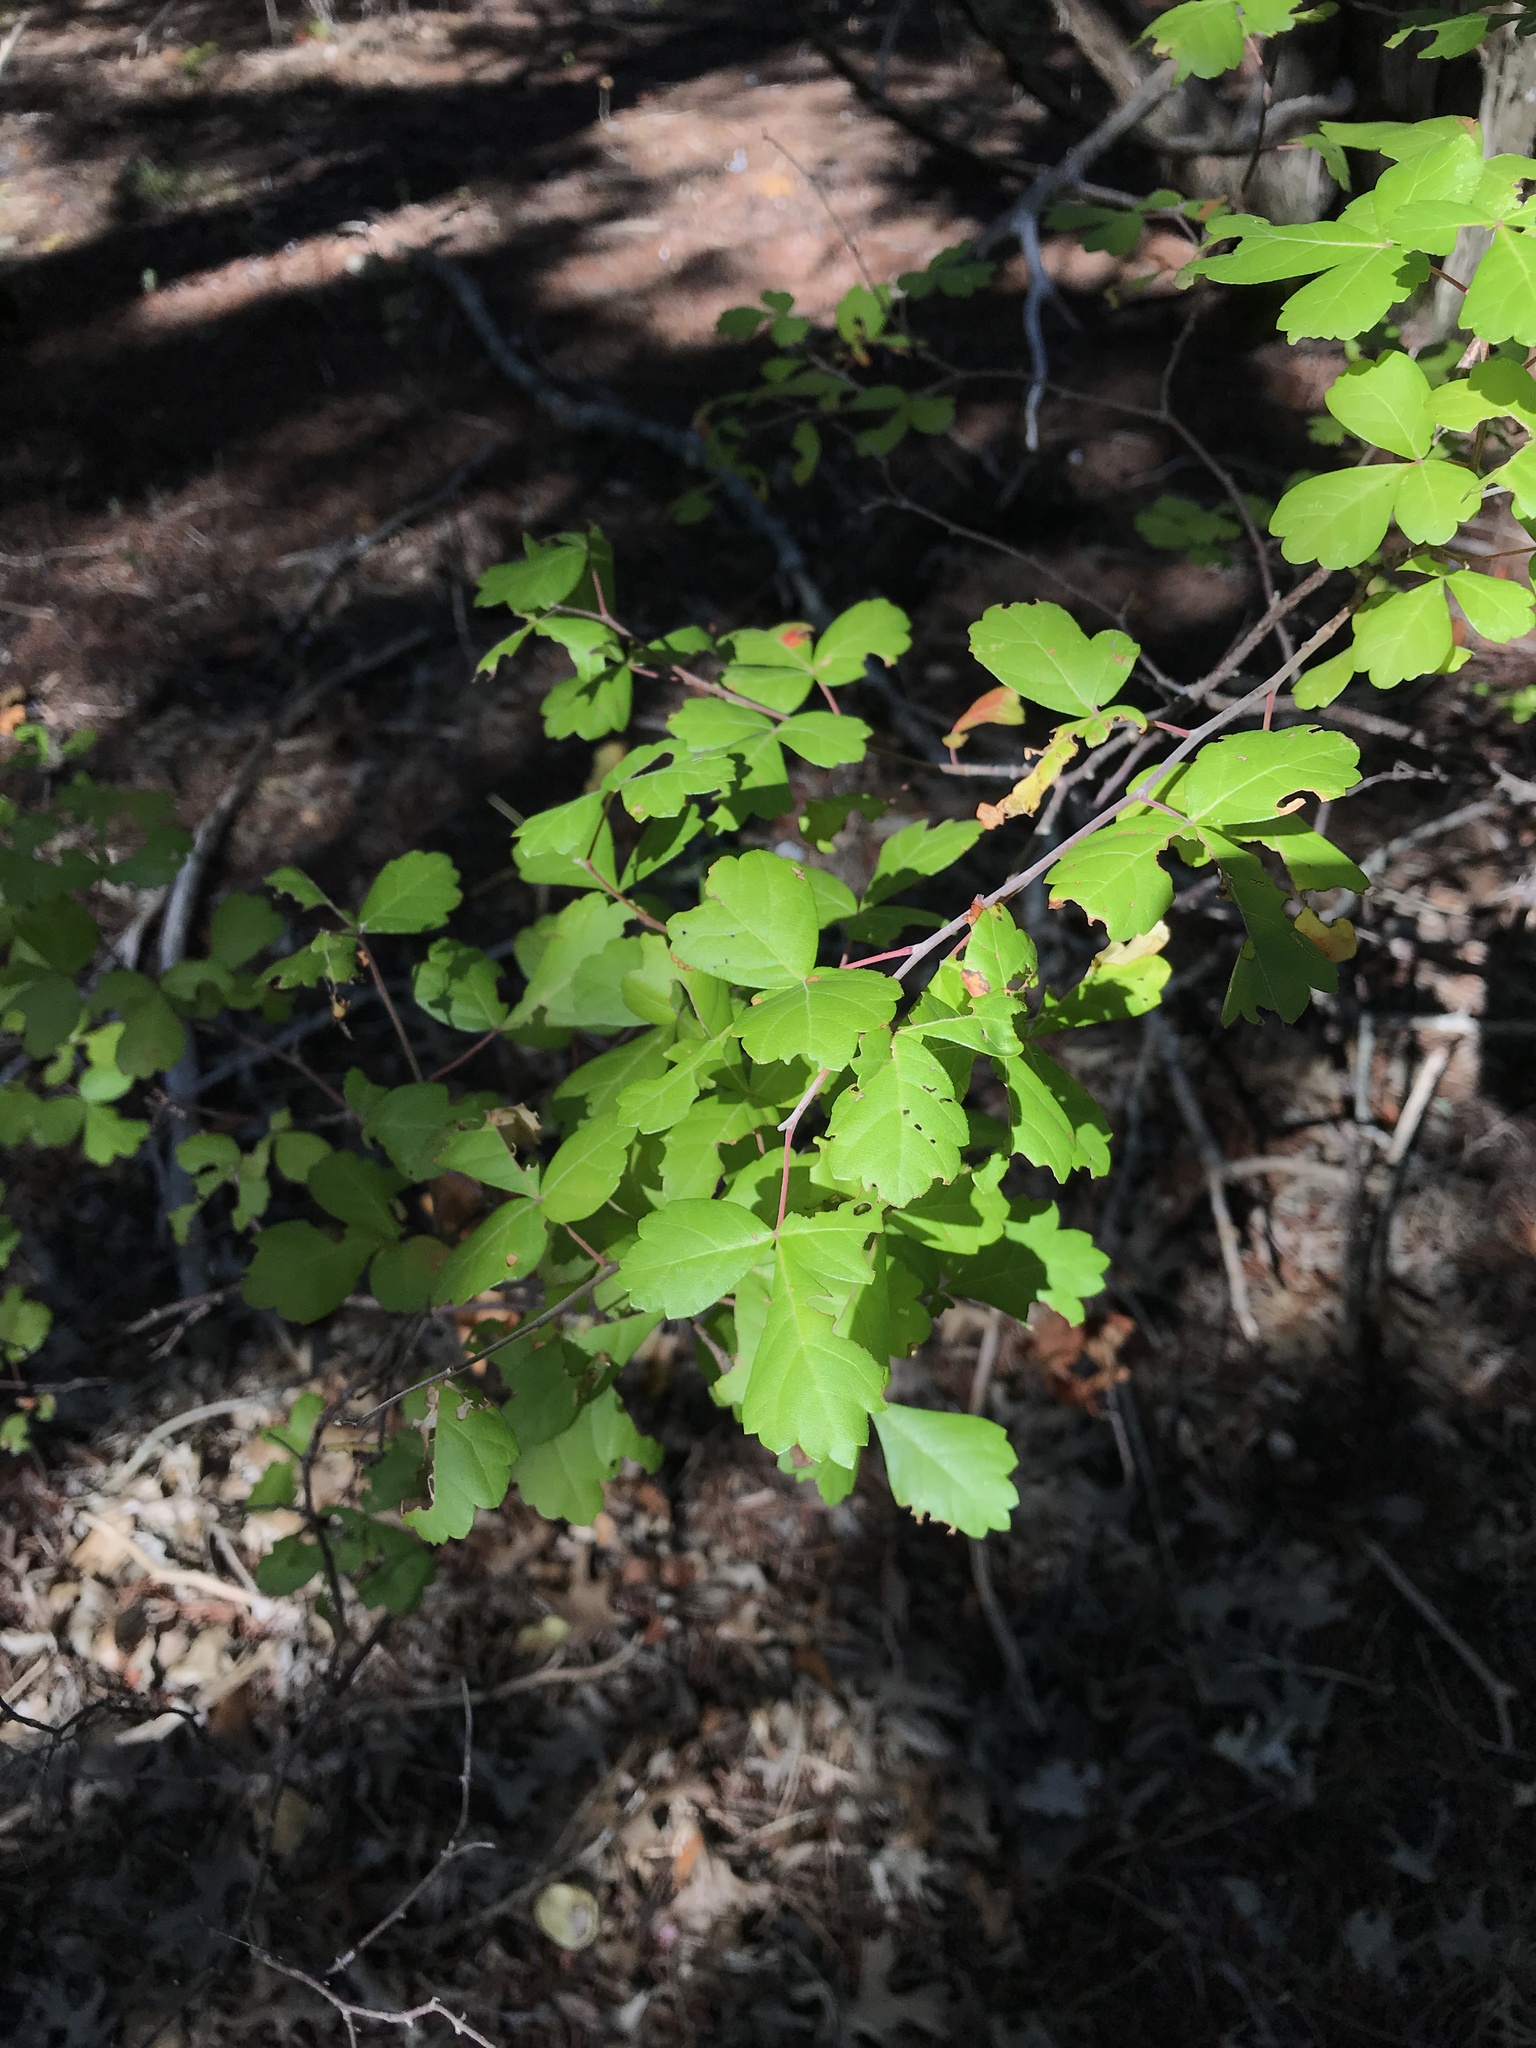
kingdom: Plantae
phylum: Tracheophyta
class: Magnoliopsida
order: Sapindales
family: Anacardiaceae
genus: Rhus
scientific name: Rhus aromatica
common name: Aromatic sumac
